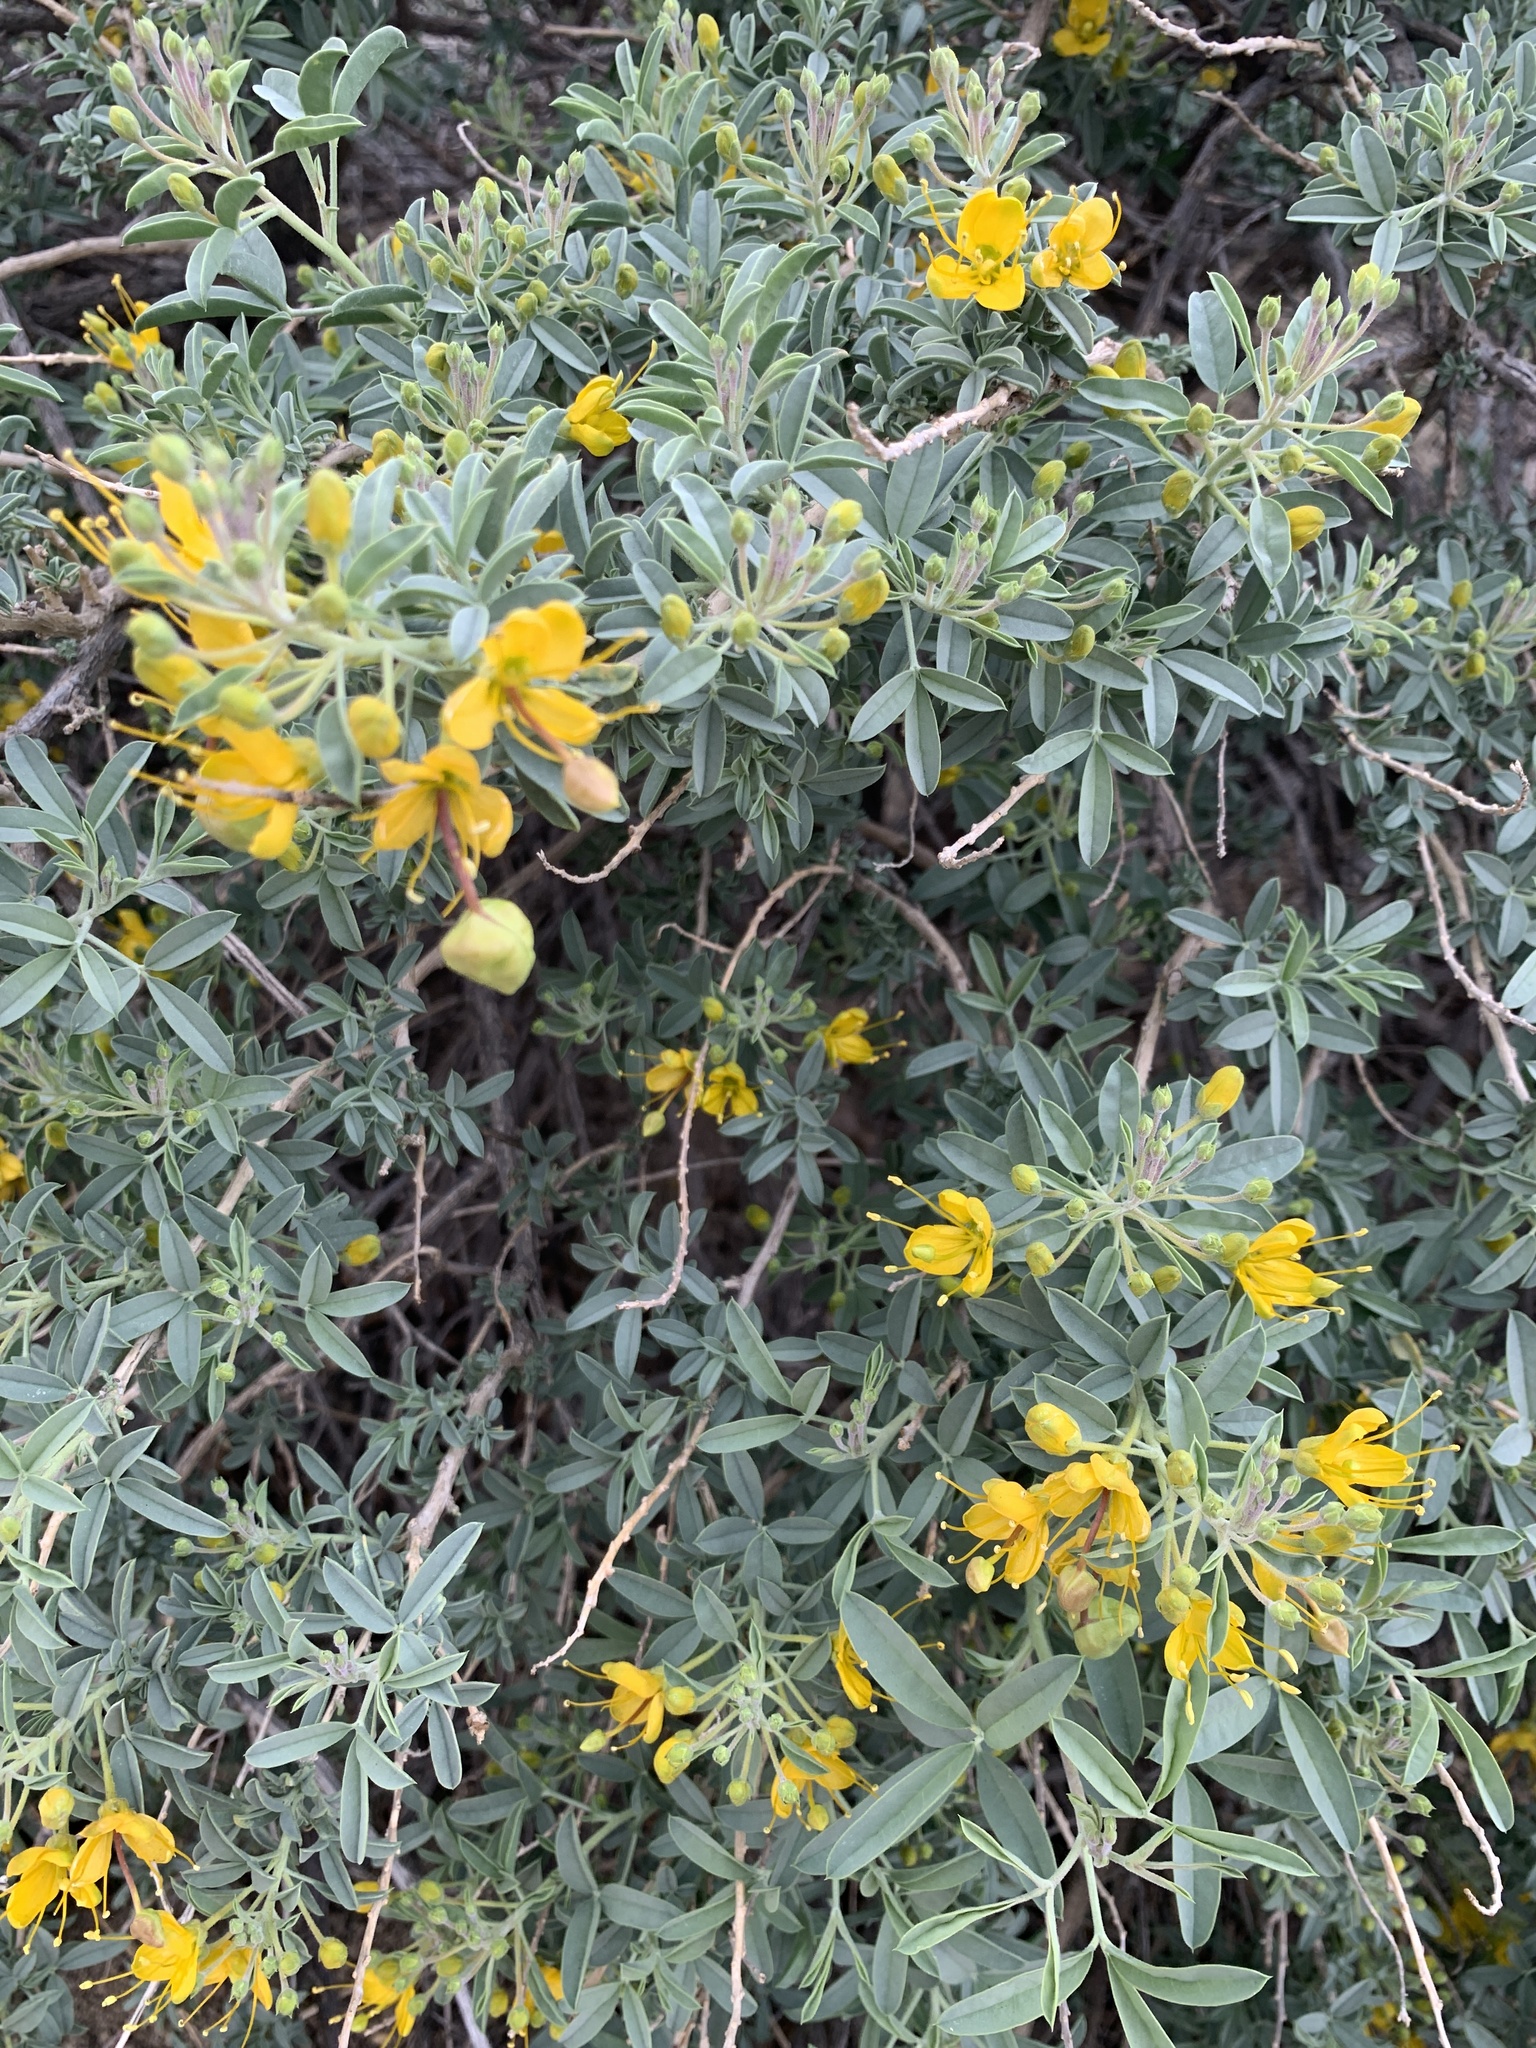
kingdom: Plantae
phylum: Tracheophyta
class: Magnoliopsida
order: Brassicales
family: Cleomaceae
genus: Cleomella
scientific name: Cleomella arborea
